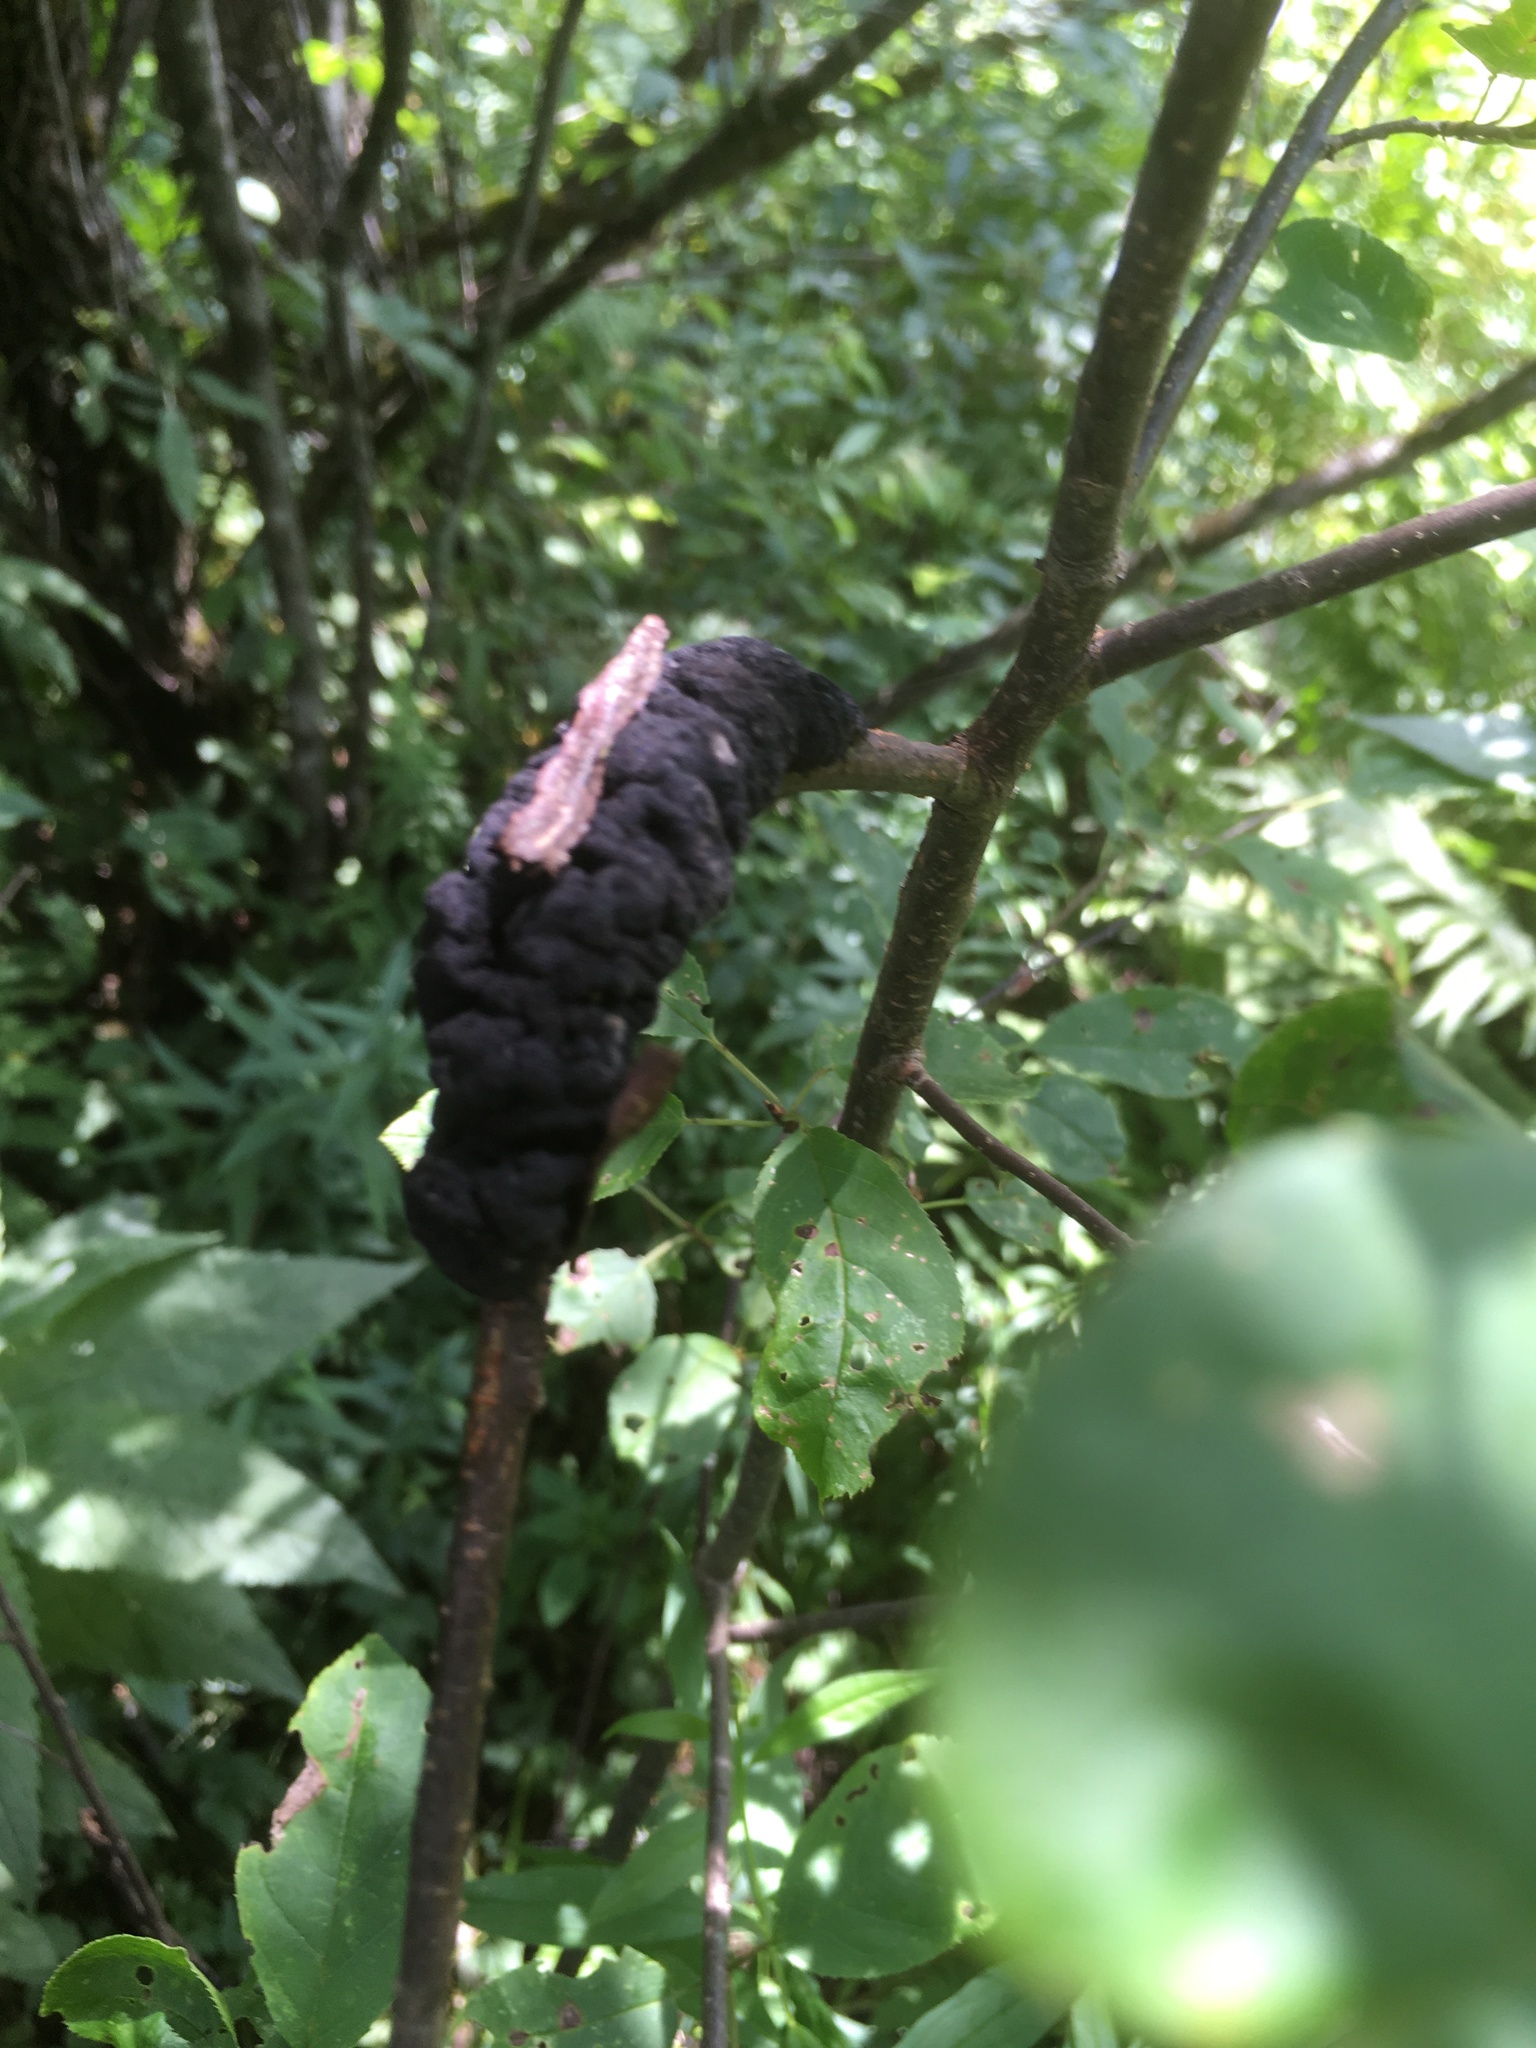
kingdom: Fungi
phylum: Ascomycota
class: Dothideomycetes
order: Venturiales
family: Venturiaceae
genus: Apiosporina
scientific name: Apiosporina morbosa
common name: Black knot
